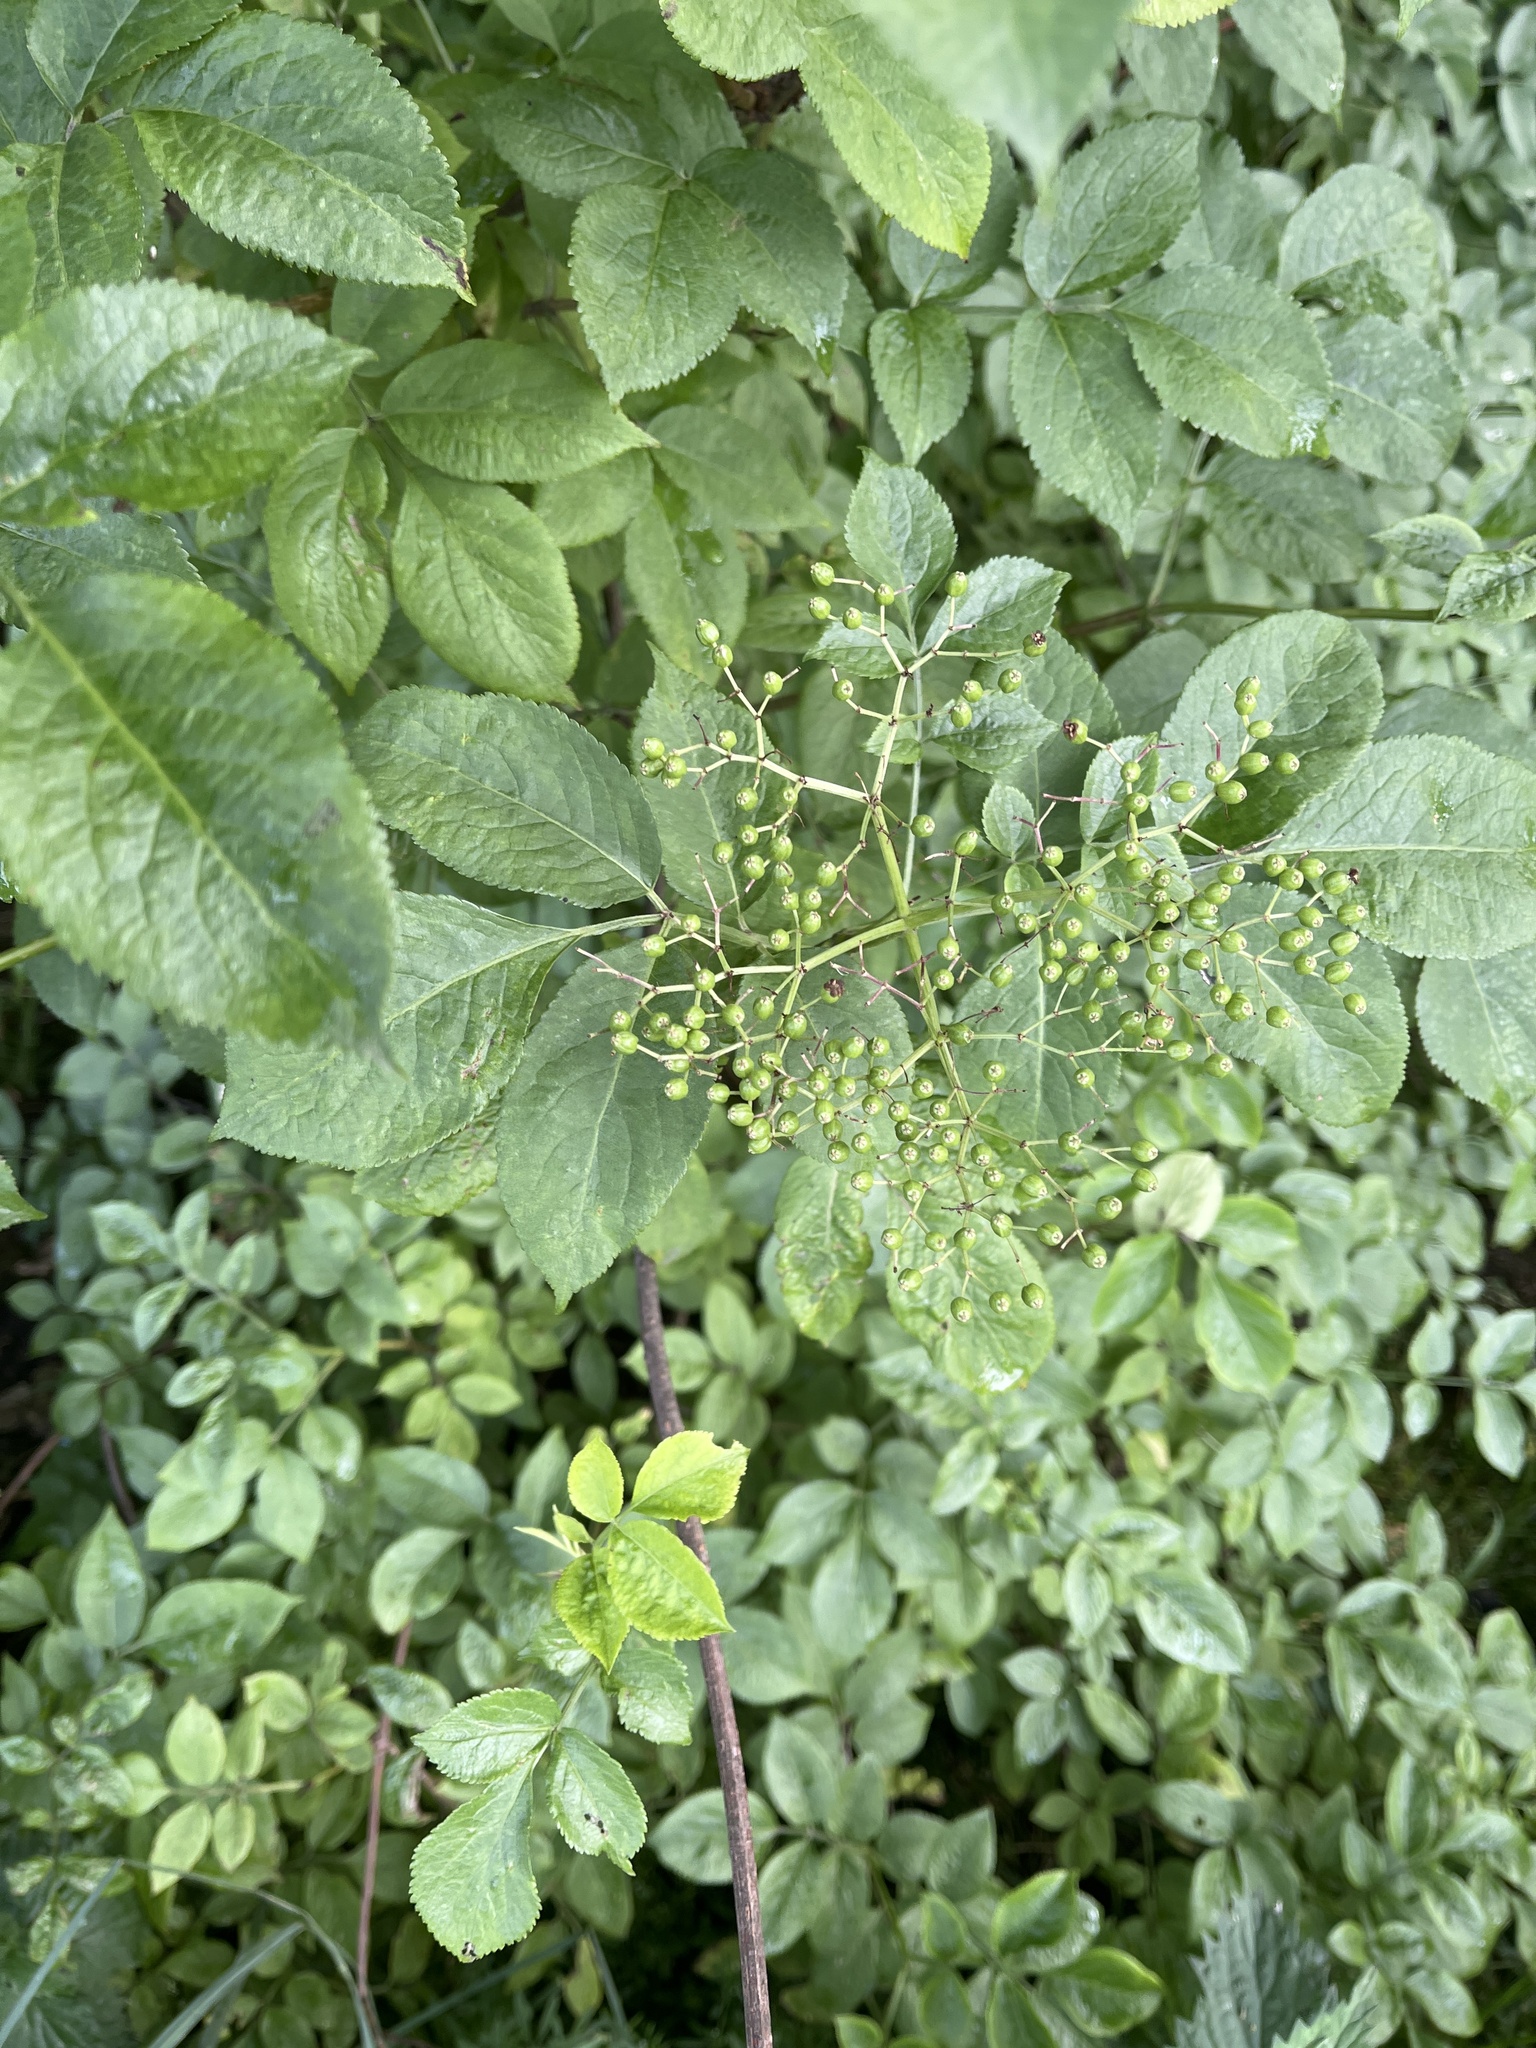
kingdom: Plantae
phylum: Tracheophyta
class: Magnoliopsida
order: Dipsacales
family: Viburnaceae
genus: Sambucus
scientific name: Sambucus nigra
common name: Elder
